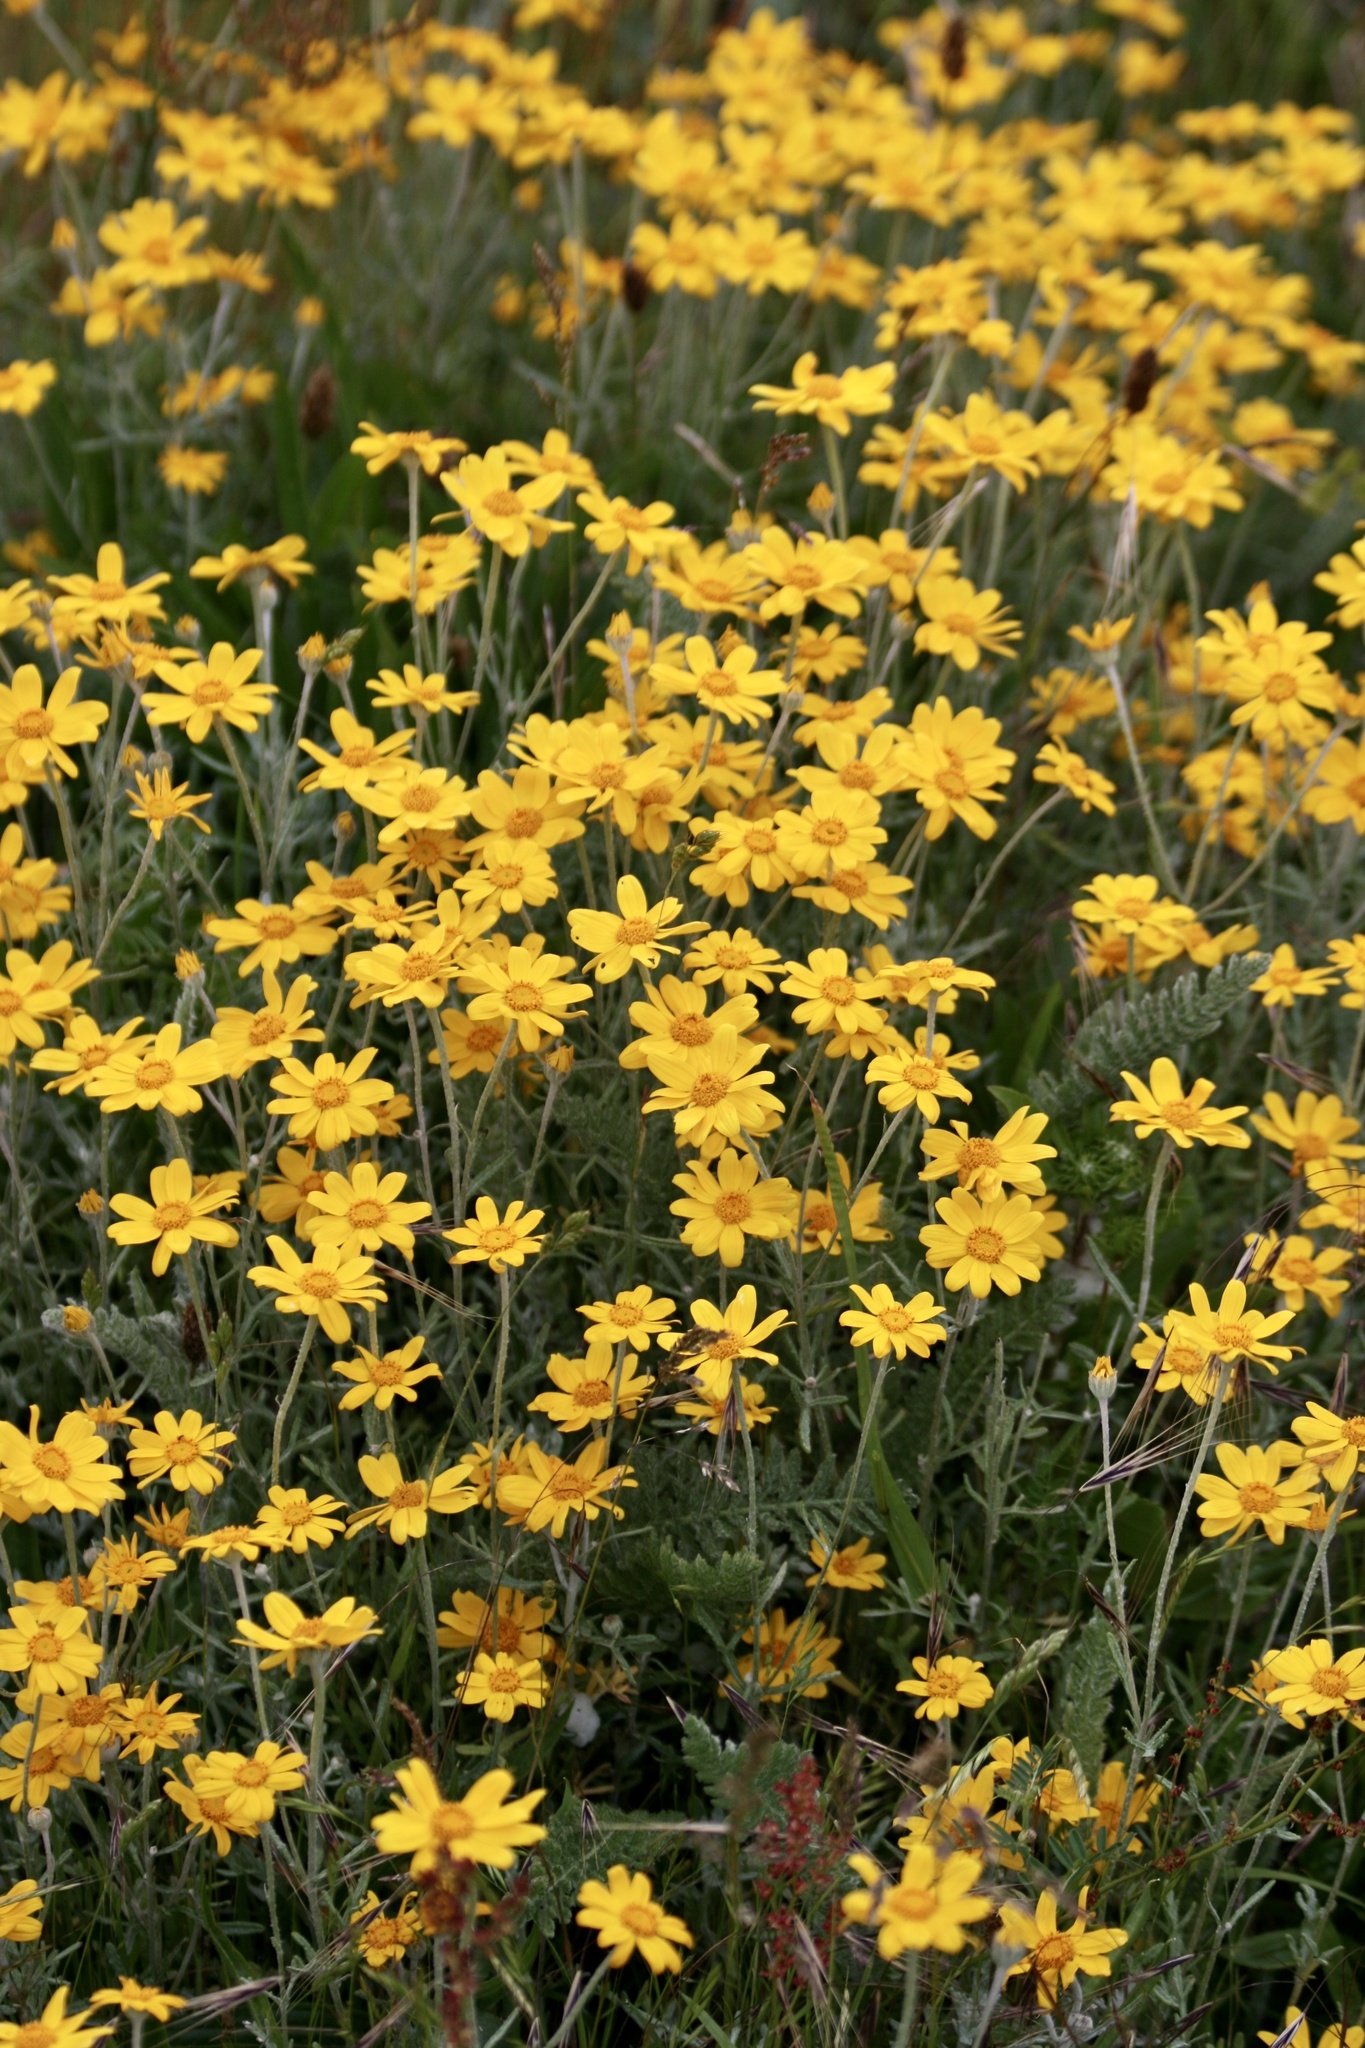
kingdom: Plantae
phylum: Tracheophyta
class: Magnoliopsida
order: Asterales
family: Asteraceae
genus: Eriophyllum
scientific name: Eriophyllum lanatum
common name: Common woolly-sunflower
